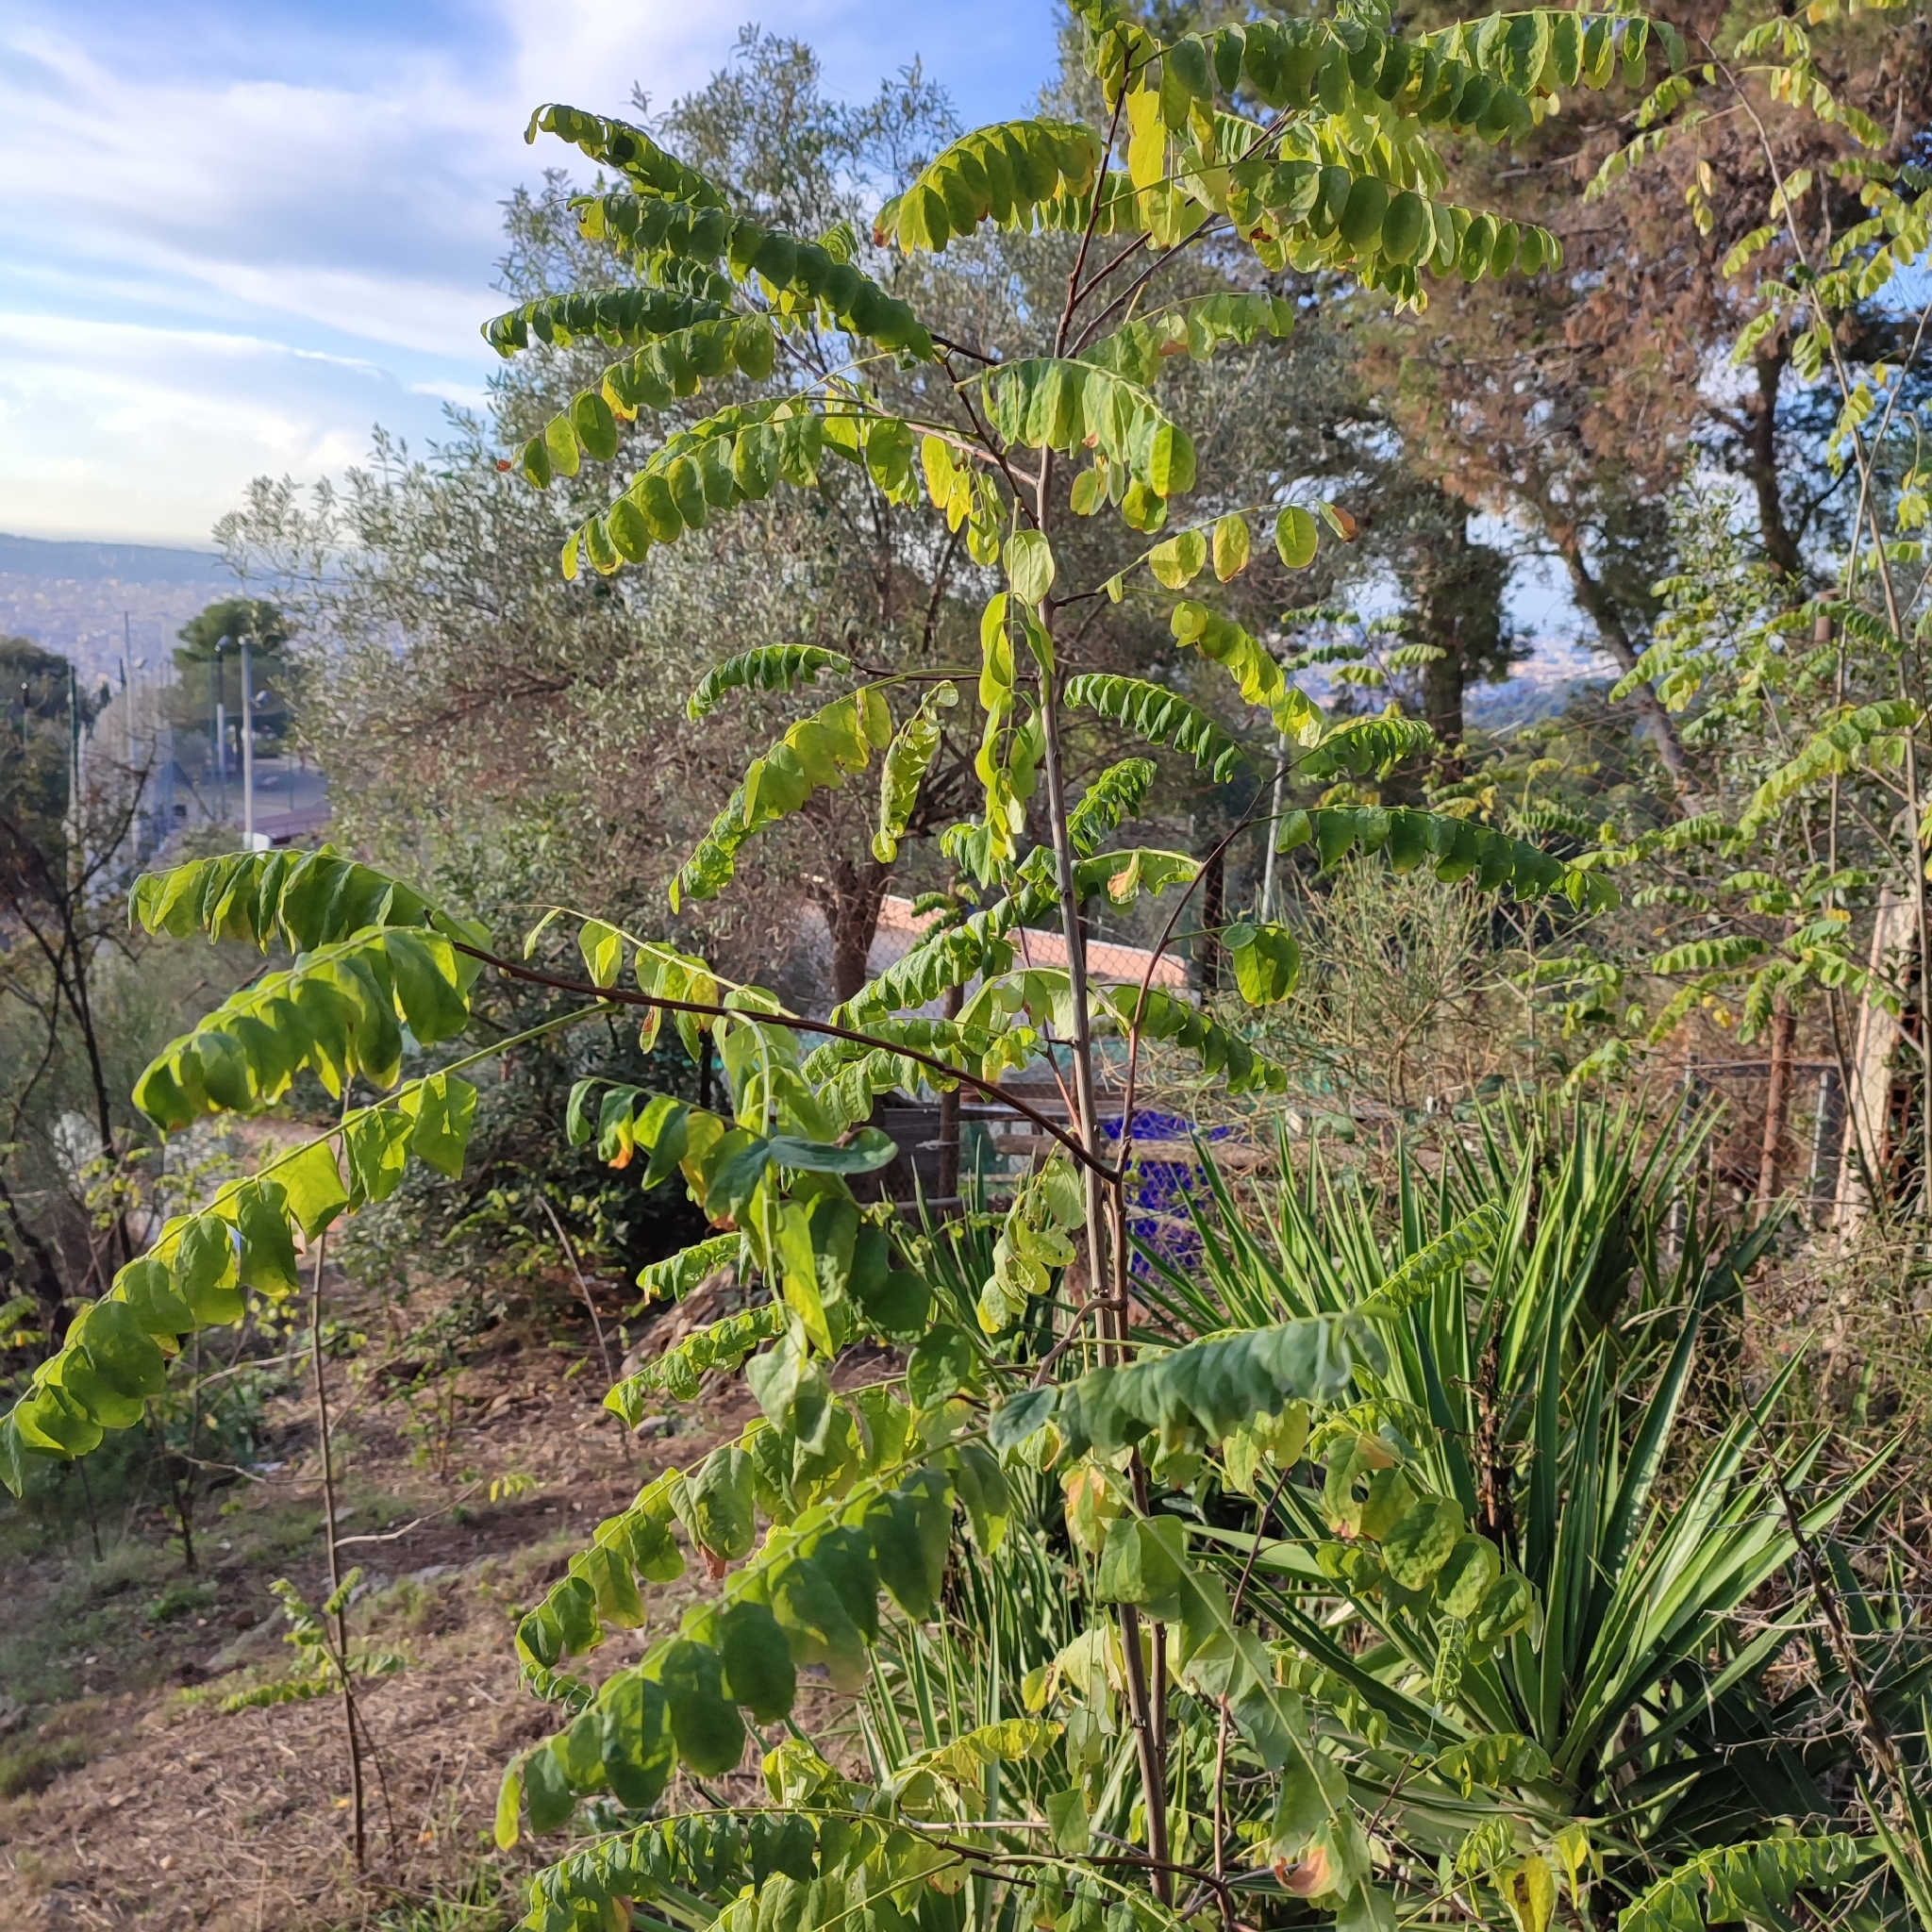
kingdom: Plantae
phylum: Tracheophyta
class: Magnoliopsida
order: Fabales
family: Fabaceae
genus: Robinia
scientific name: Robinia pseudoacacia
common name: Black locust
